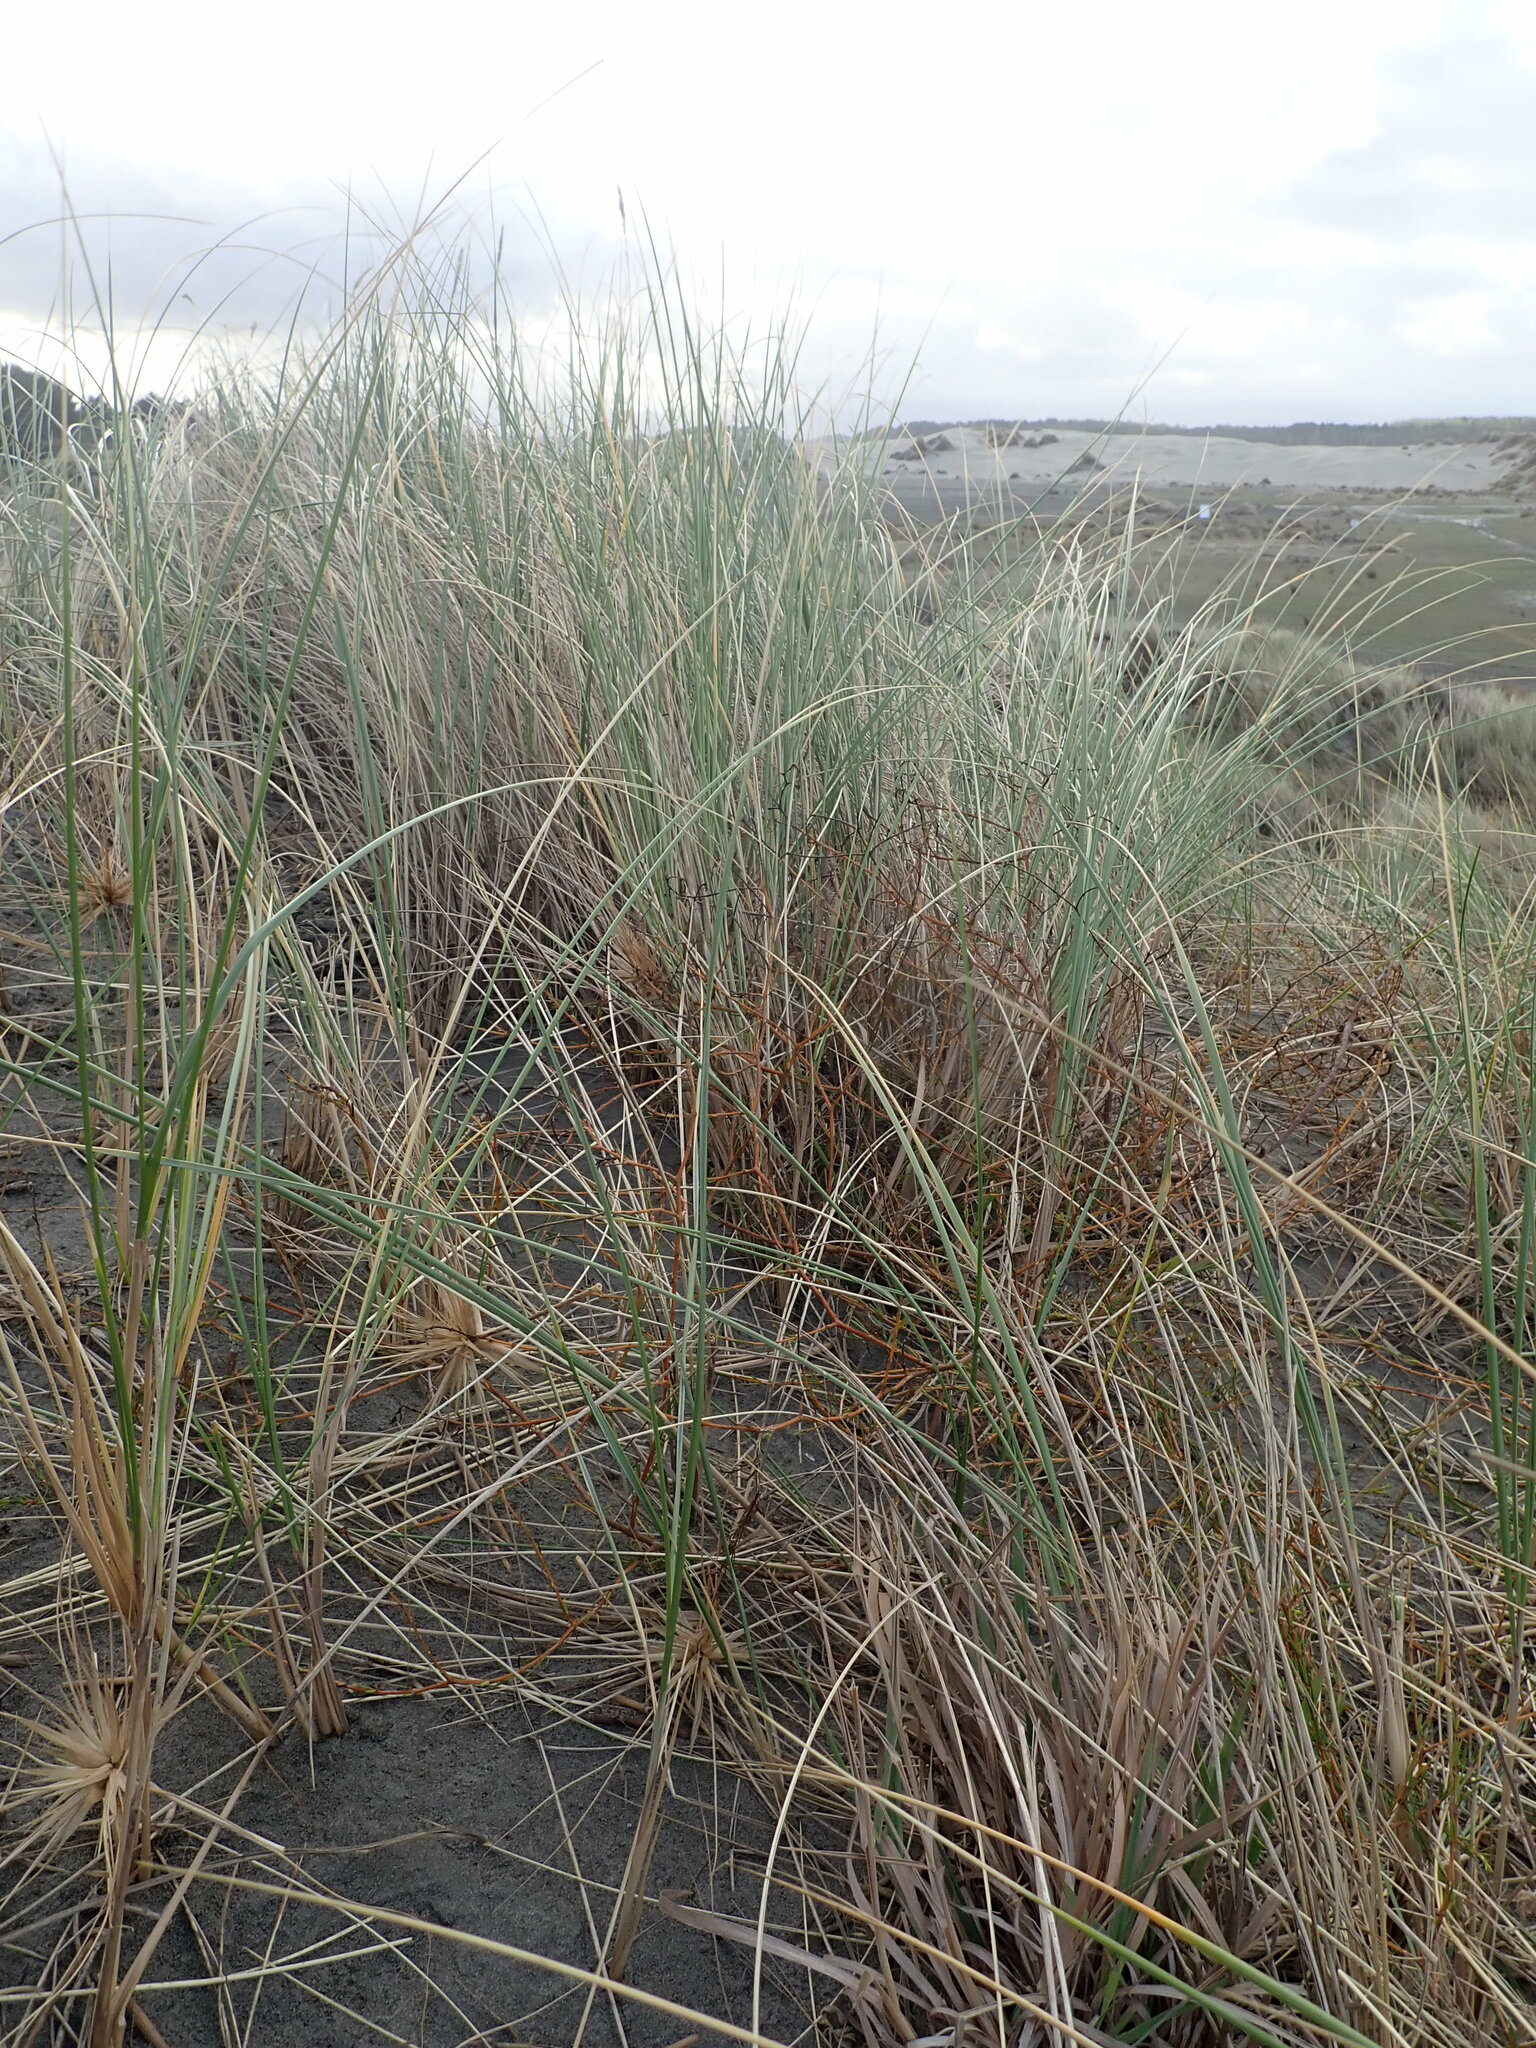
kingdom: Plantae
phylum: Tracheophyta
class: Magnoliopsida
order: Gentianales
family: Rubiaceae
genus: Coprosma
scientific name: Coprosma acerosa
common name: Sand coprosma
